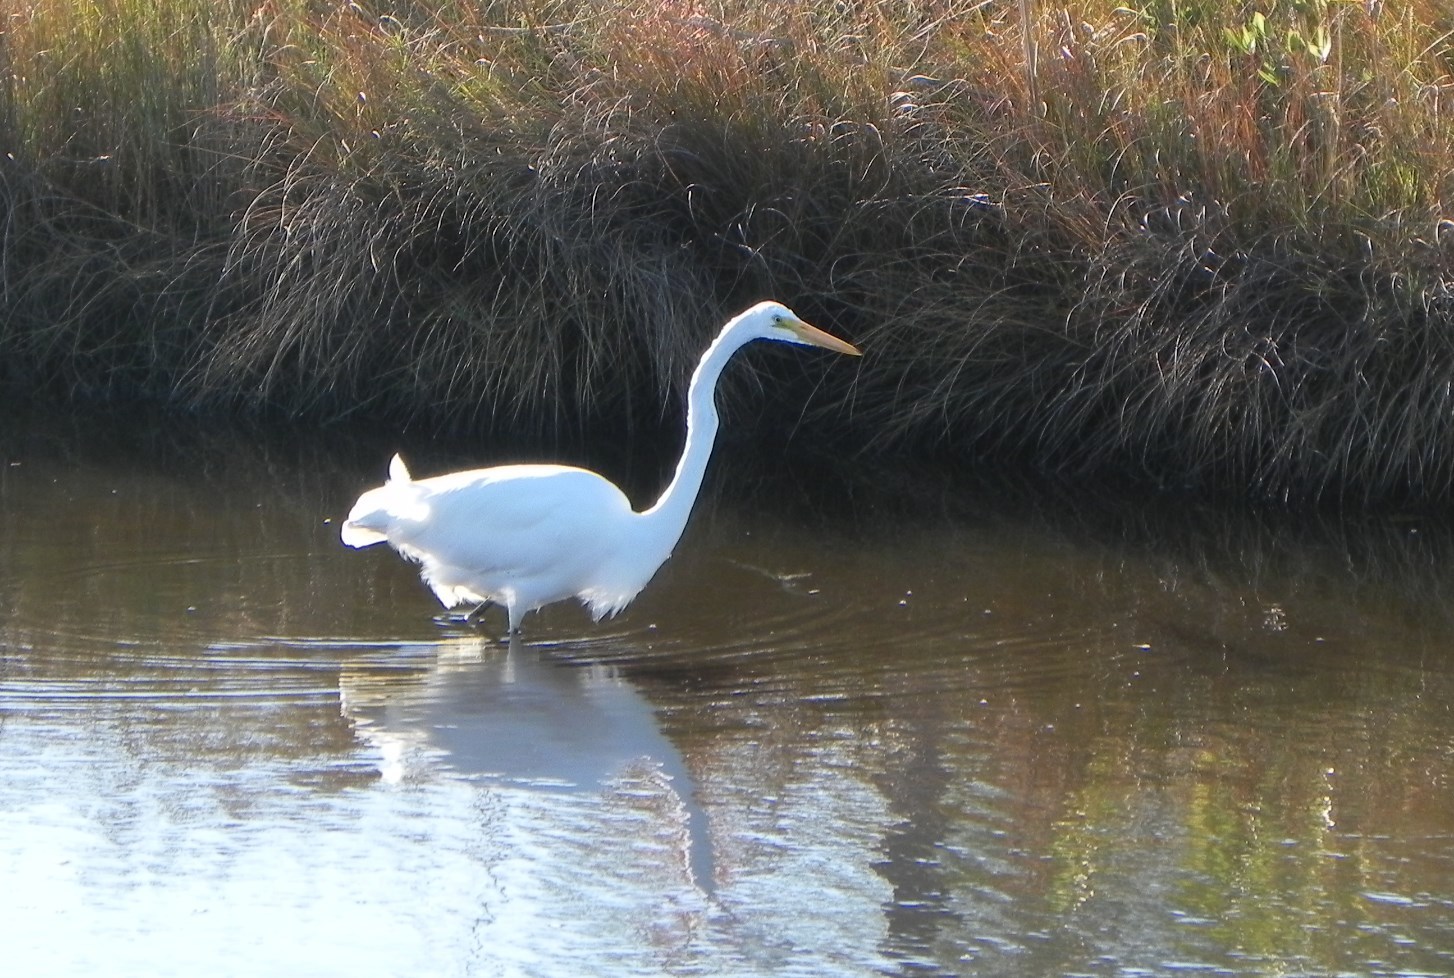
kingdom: Animalia
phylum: Chordata
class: Aves
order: Pelecaniformes
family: Ardeidae
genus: Ardea
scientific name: Ardea alba
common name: Great egret
